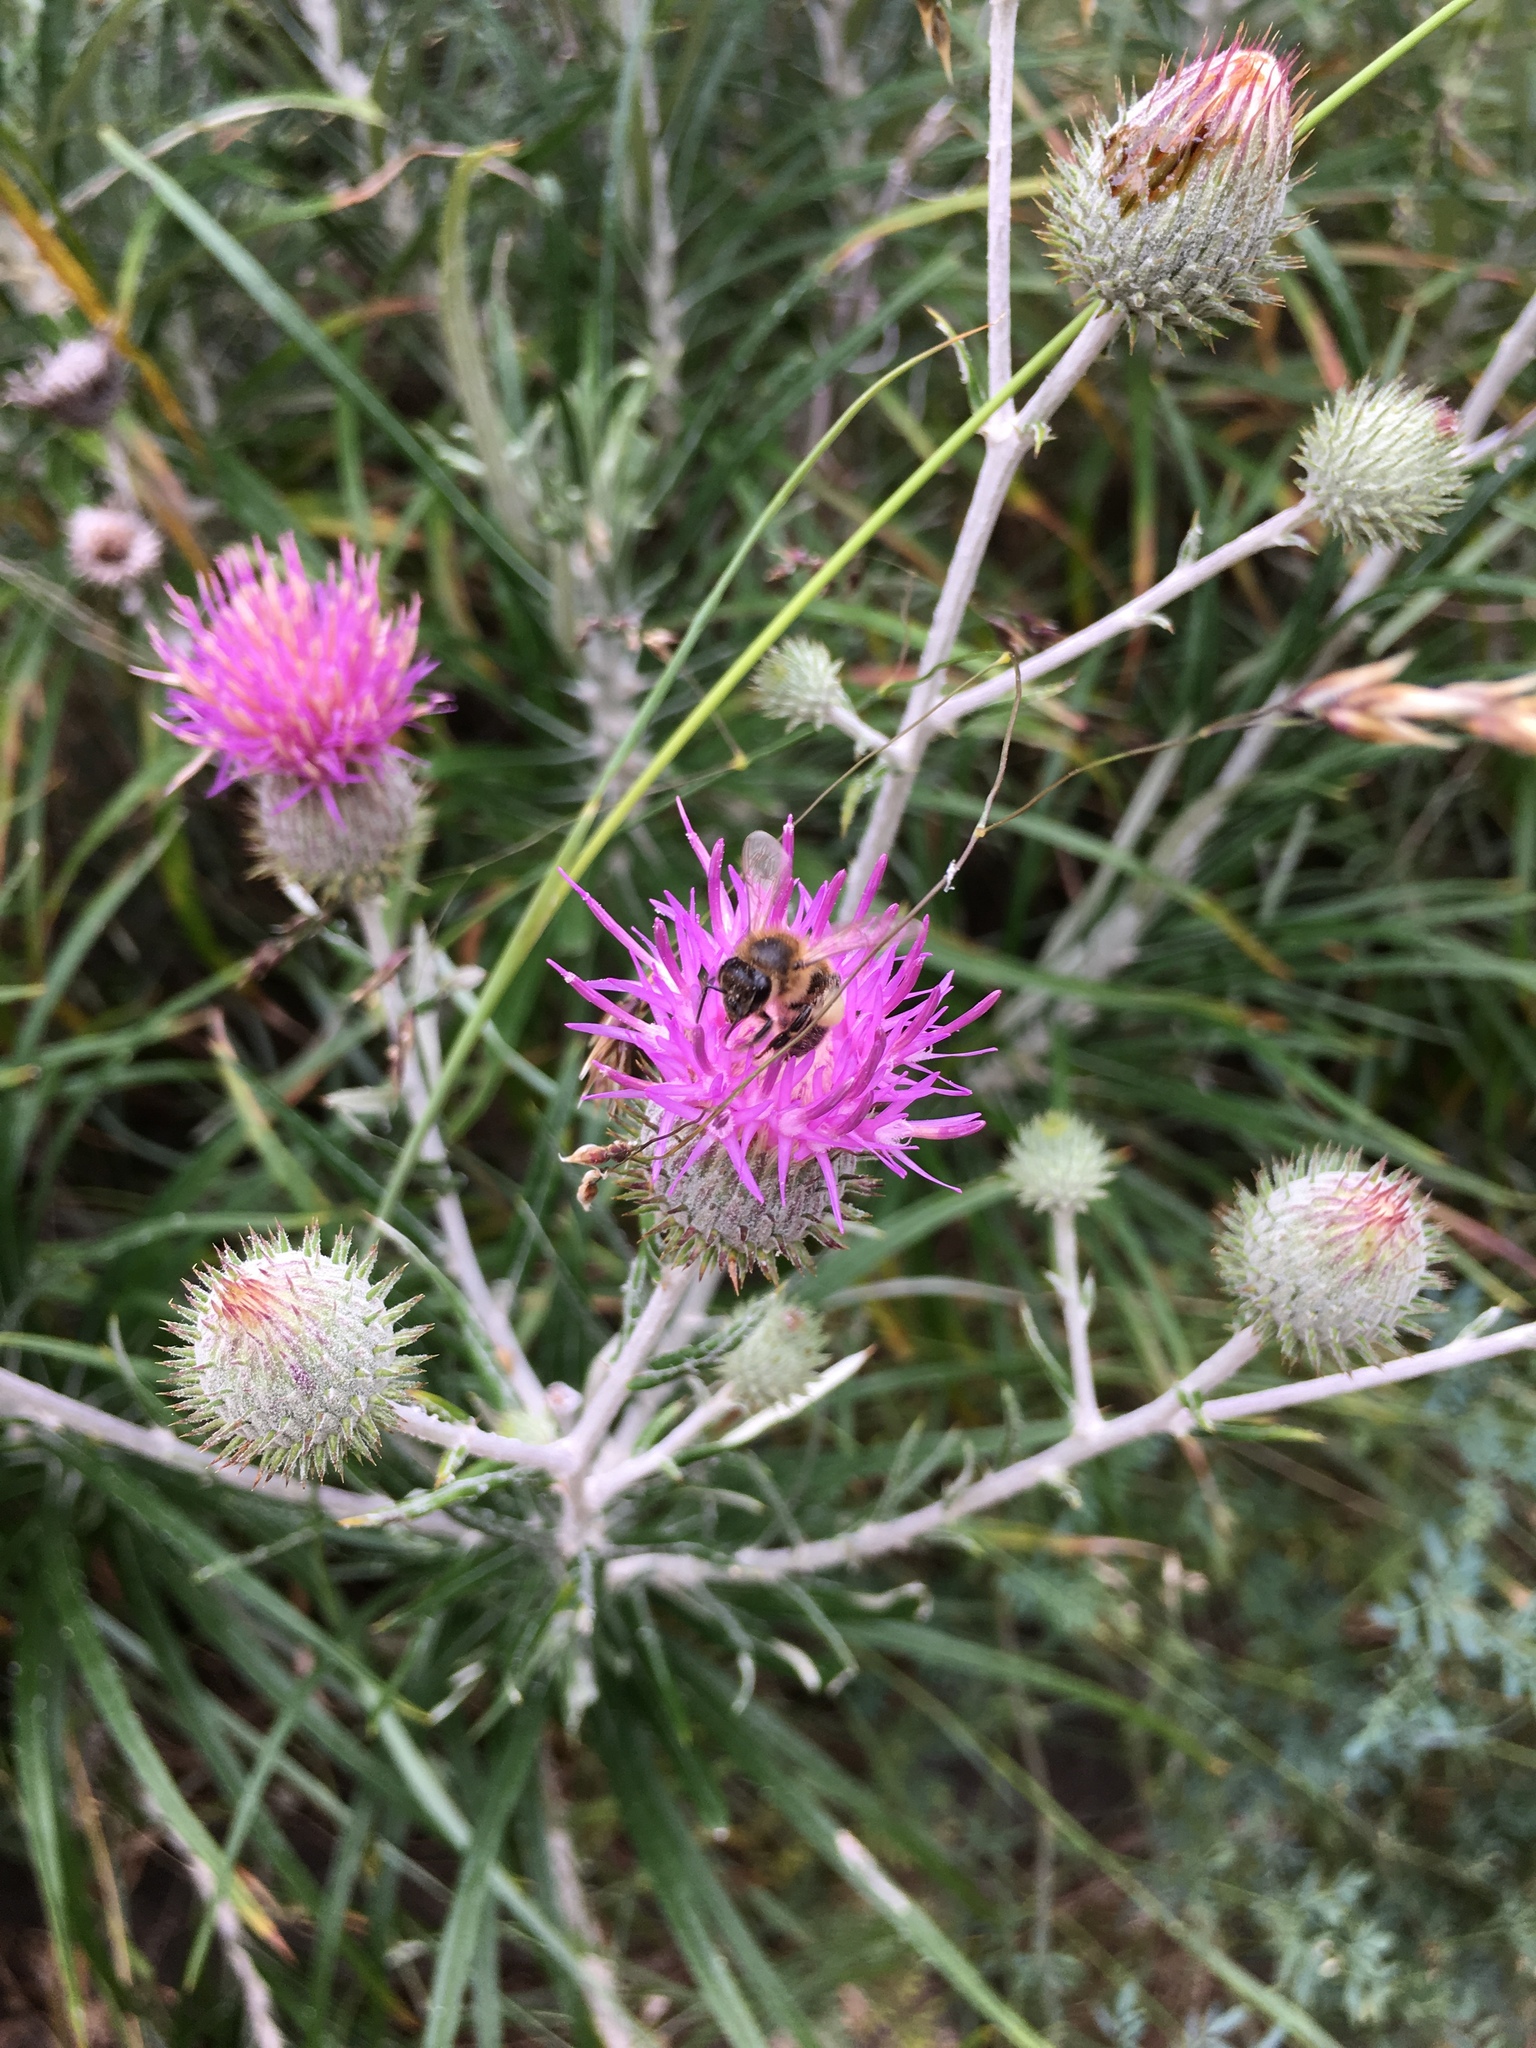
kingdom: Plantae
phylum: Tracheophyta
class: Magnoliopsida
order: Asterales
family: Asteraceae
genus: Ptilostemon
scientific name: Ptilostemon gnaphaloides
